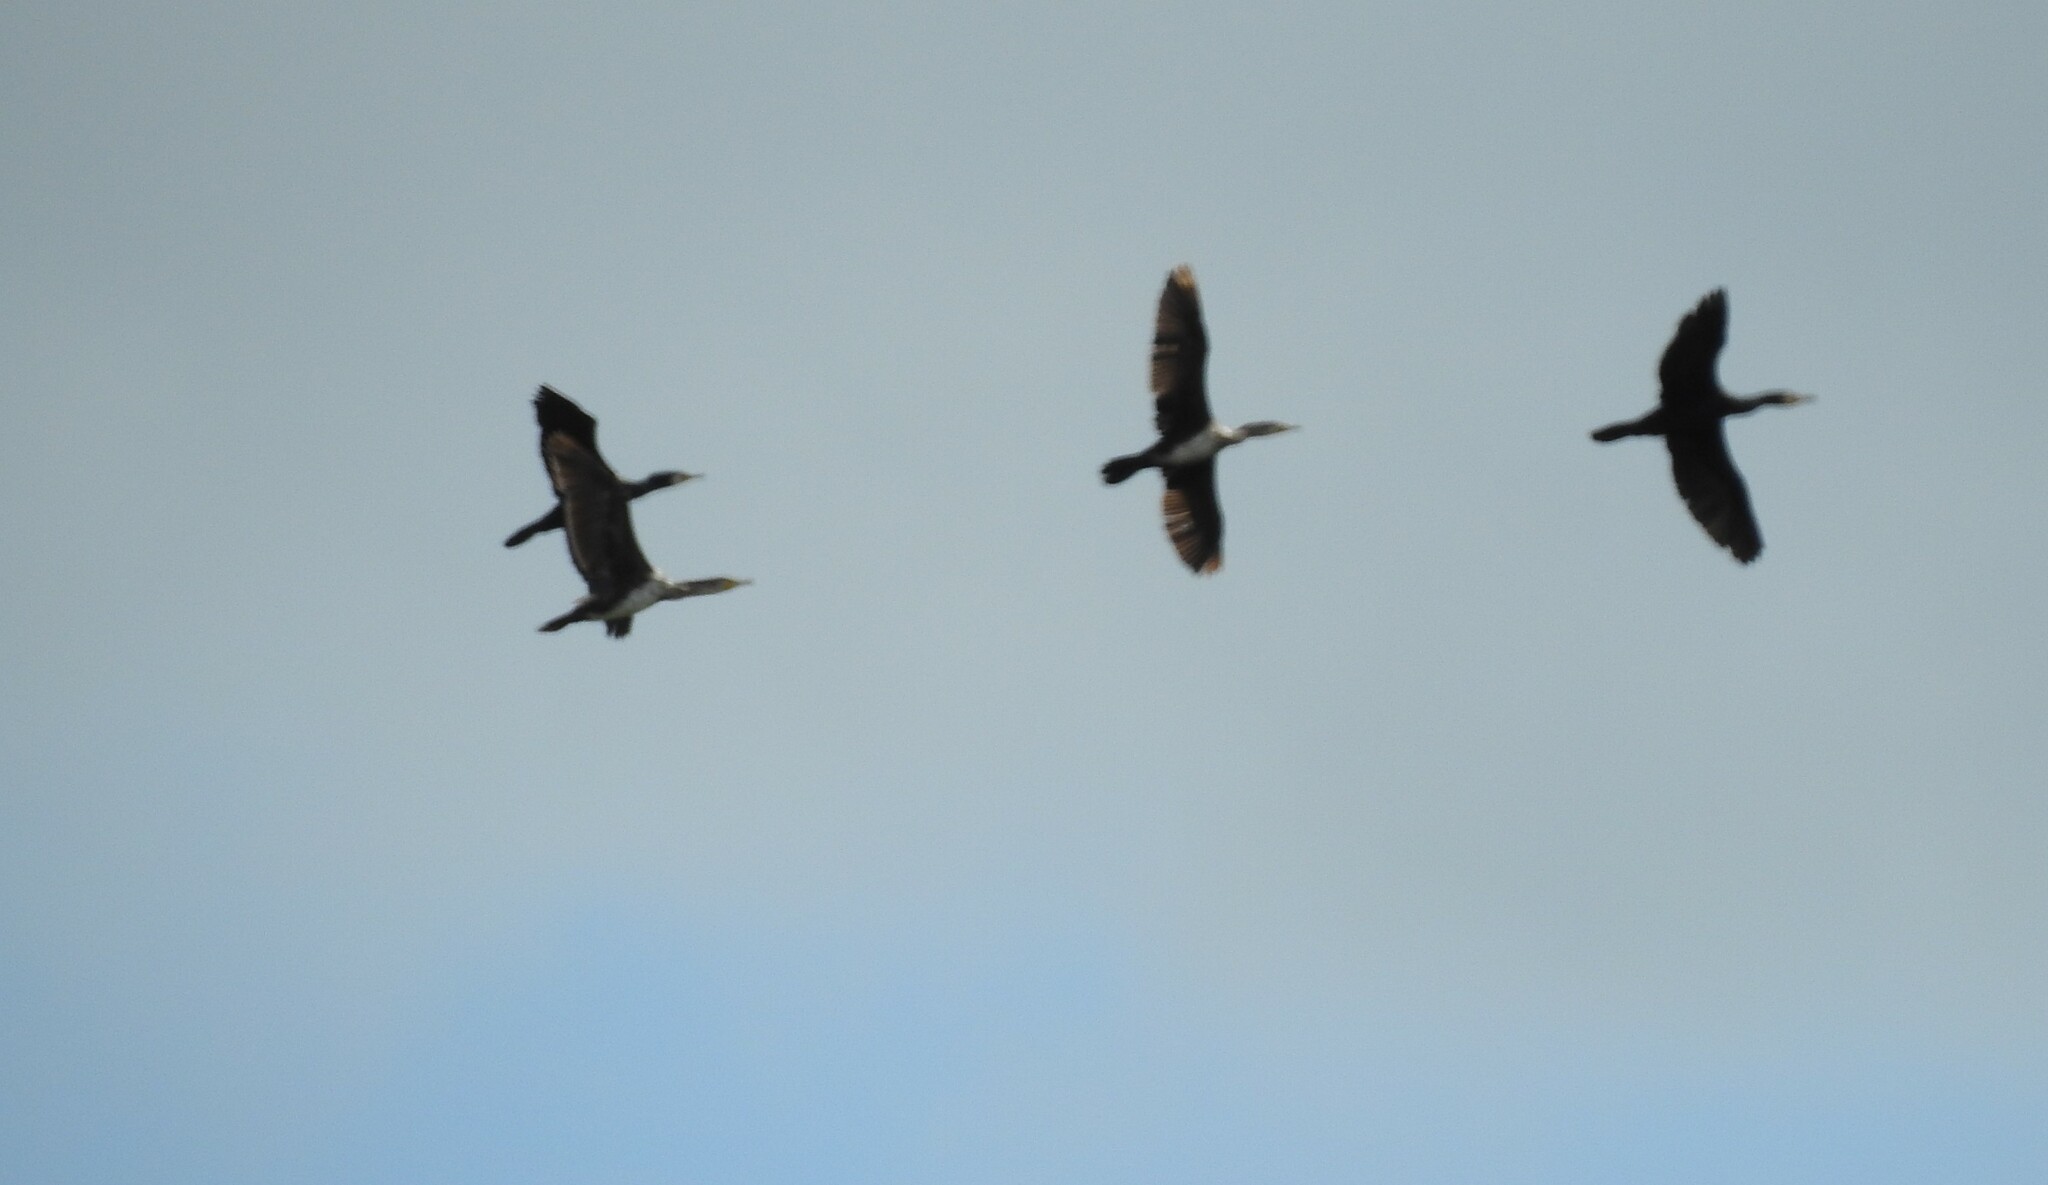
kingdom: Animalia
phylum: Chordata
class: Aves
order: Suliformes
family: Phalacrocoracidae
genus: Phalacrocorax
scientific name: Phalacrocorax carbo
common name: Great cormorant
